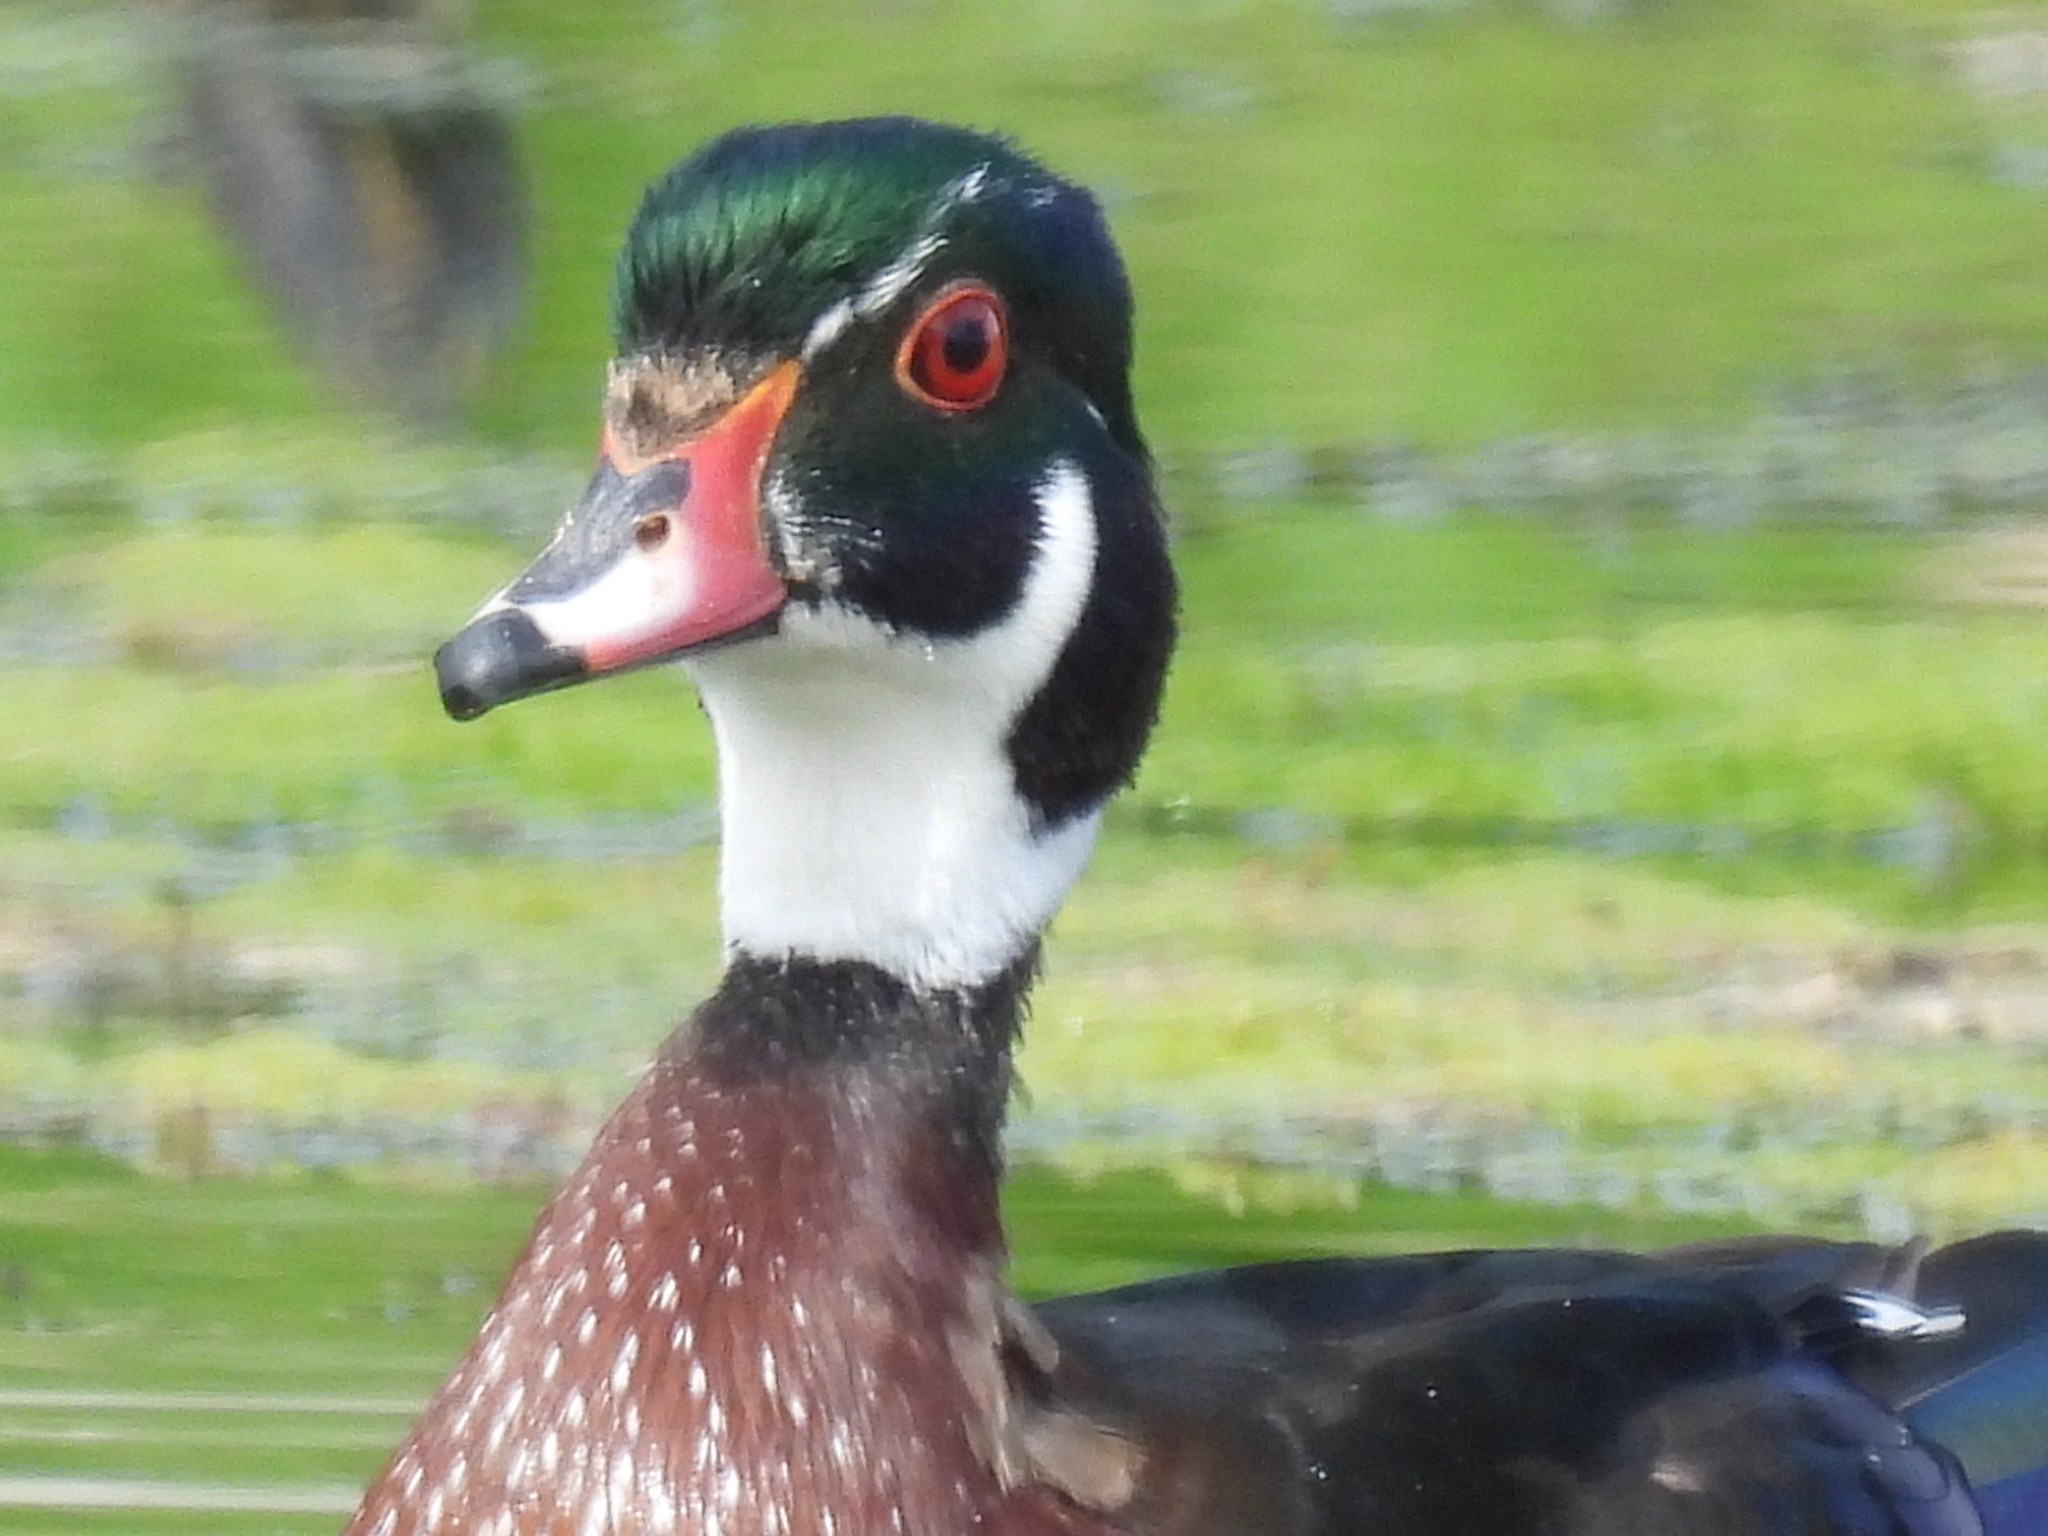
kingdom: Animalia
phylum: Chordata
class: Aves
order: Anseriformes
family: Anatidae
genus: Aix
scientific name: Aix sponsa
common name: Wood duck
